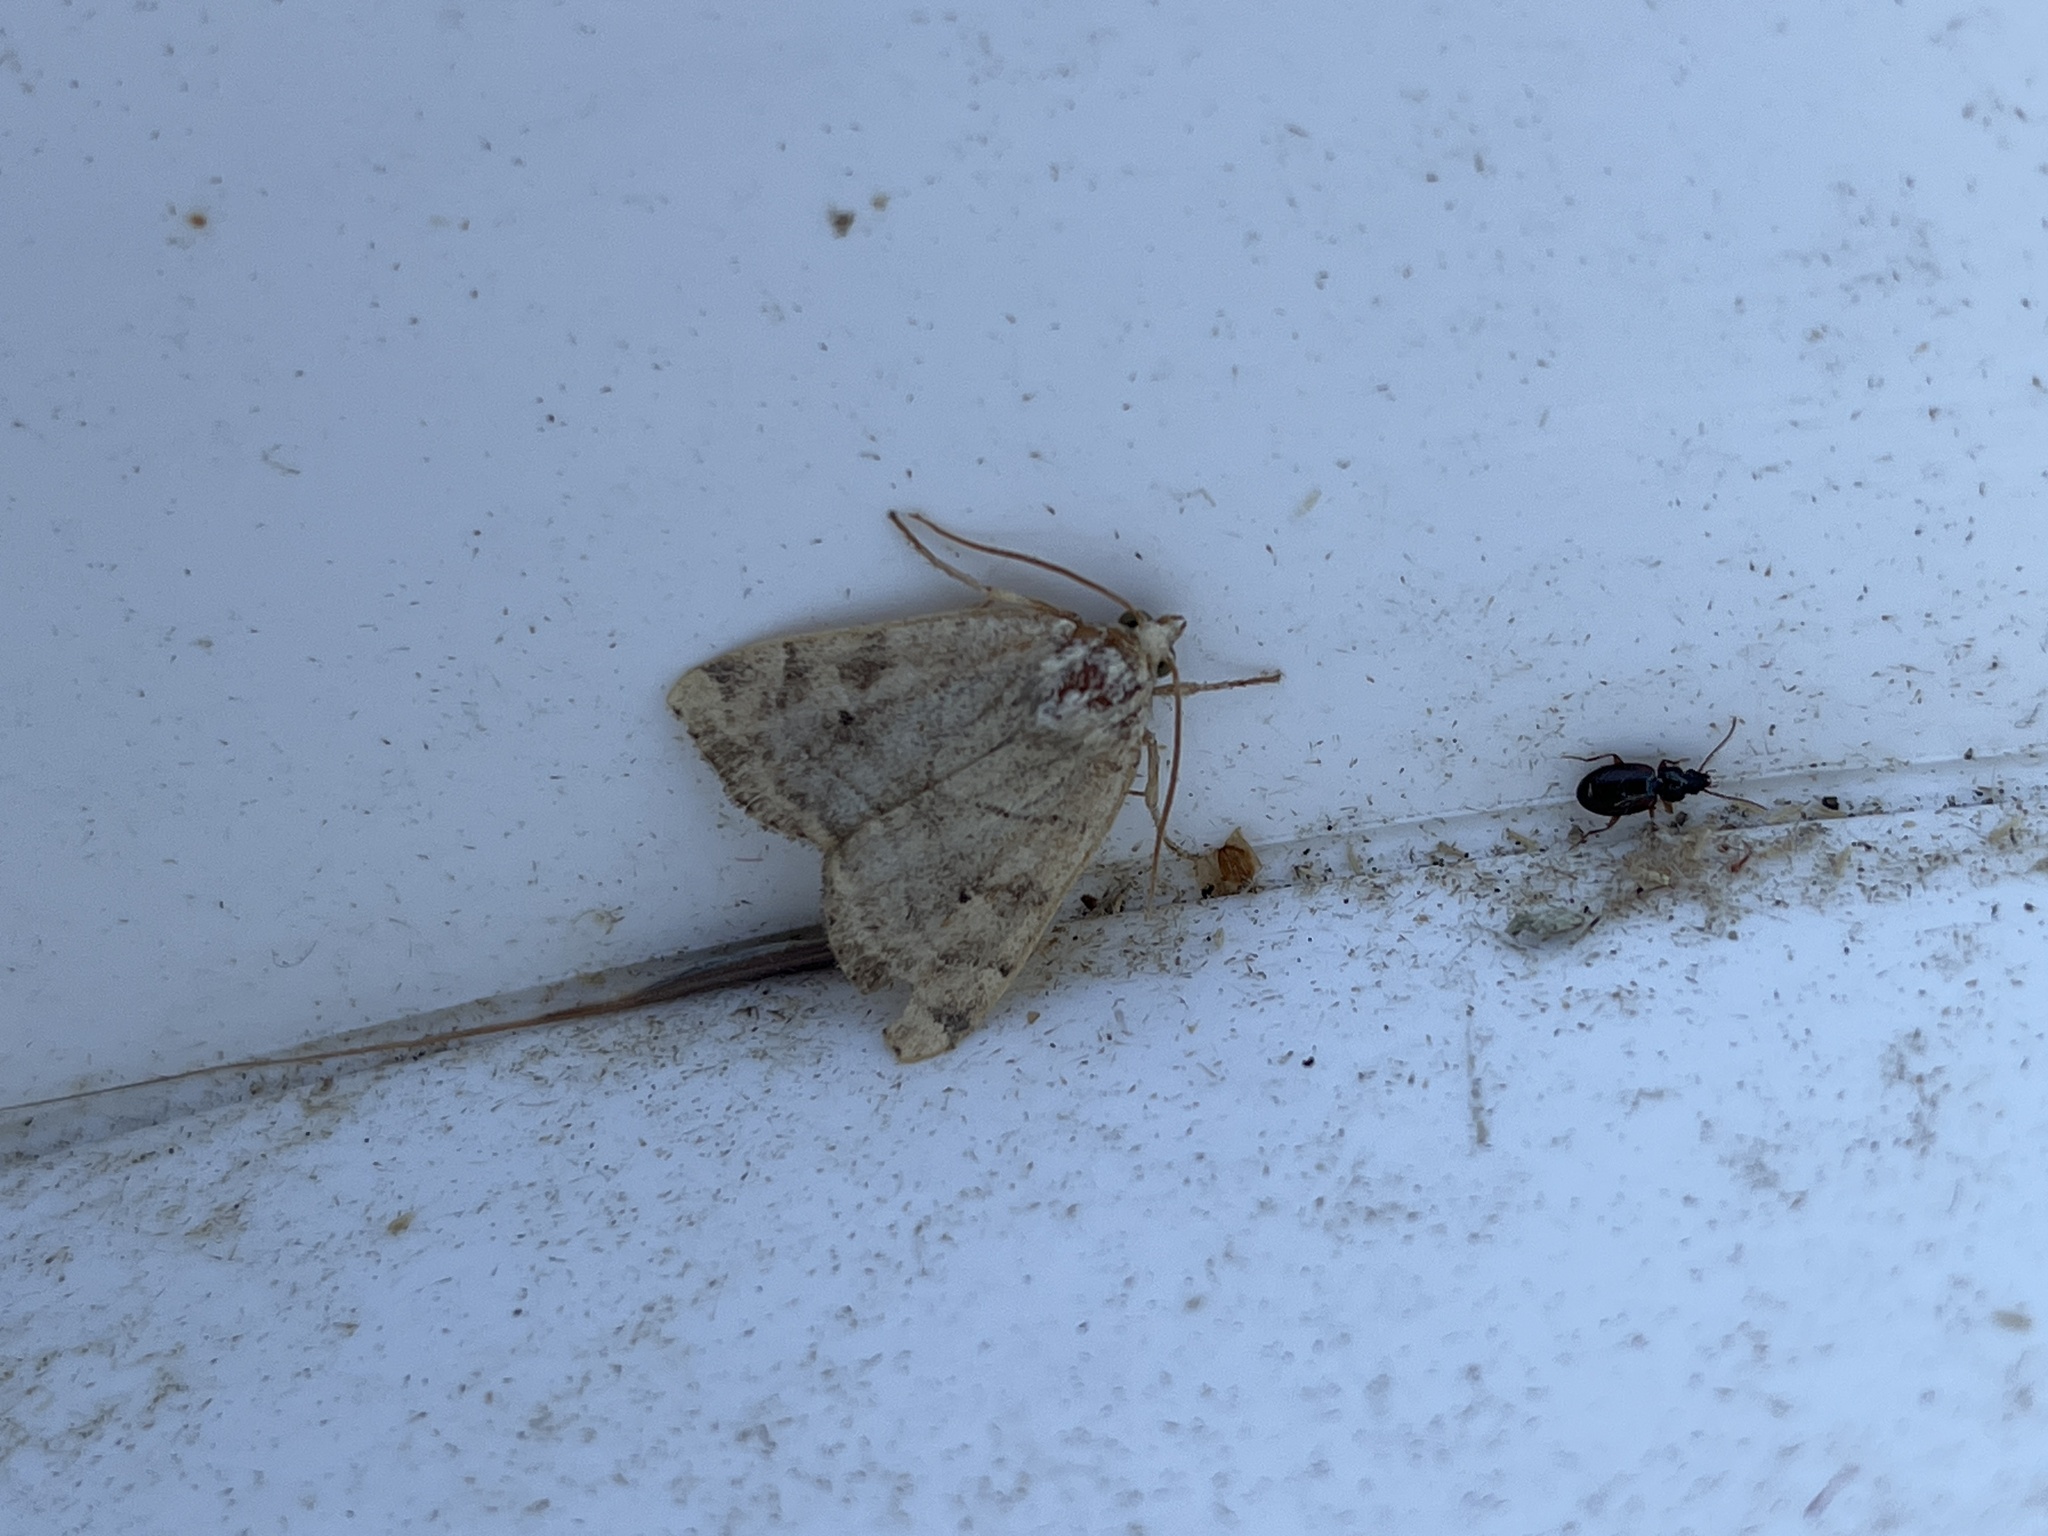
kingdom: Animalia
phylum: Arthropoda
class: Insecta
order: Lepidoptera
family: Noctuidae
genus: Cosmia
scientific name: Cosmia trapezina
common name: Dun-bar
